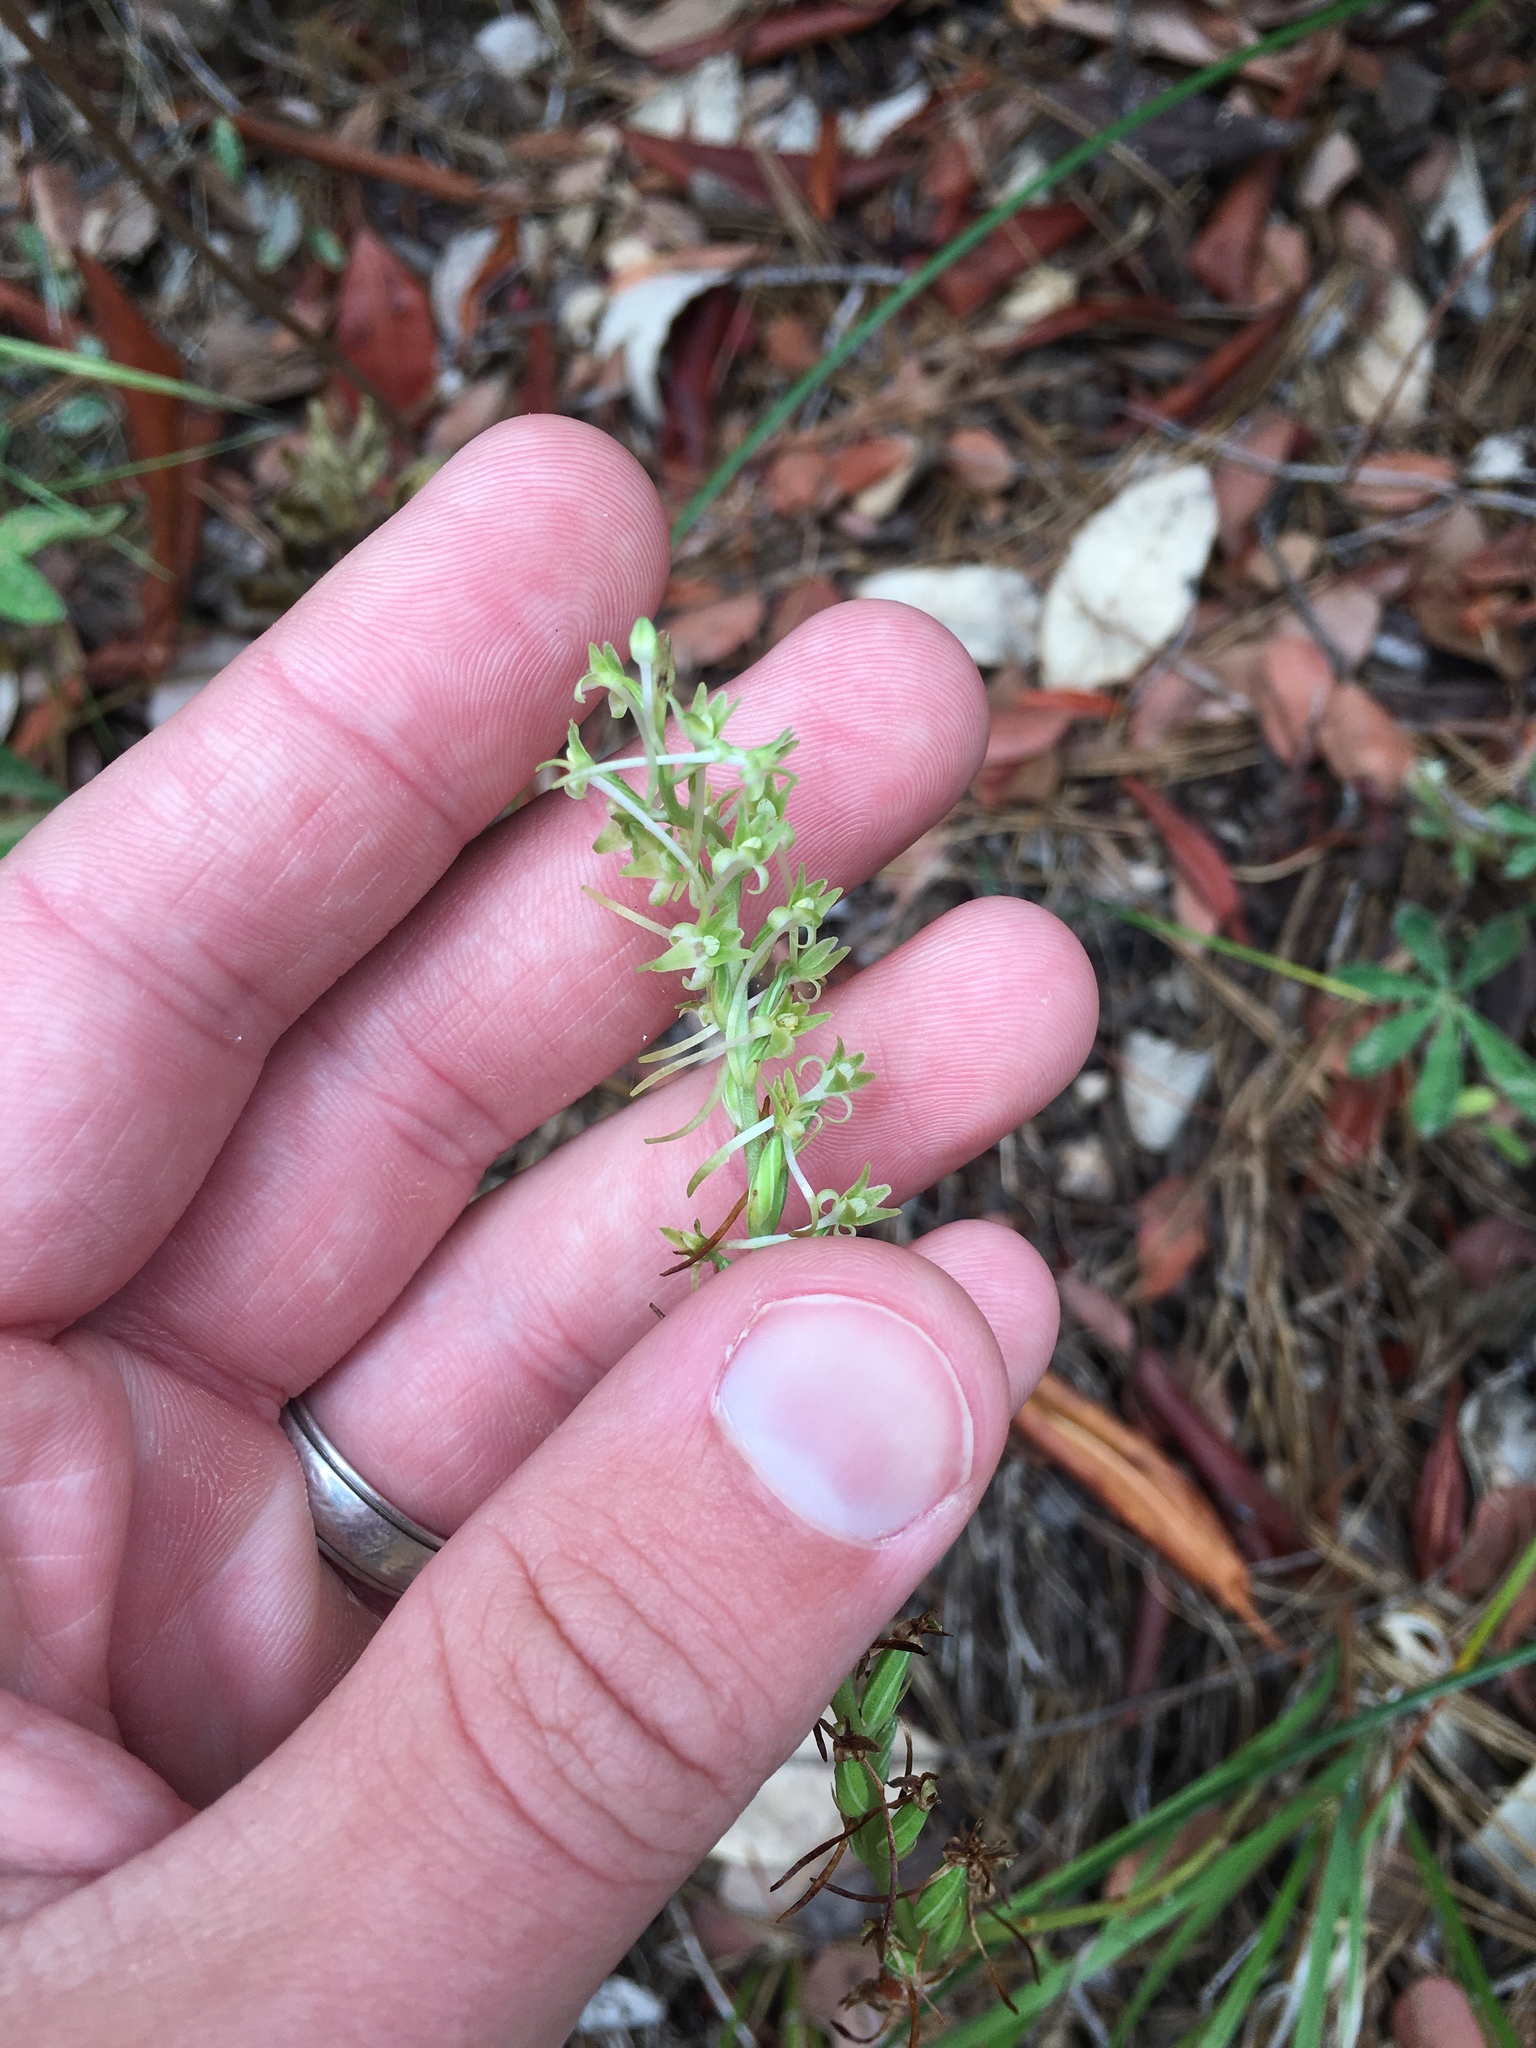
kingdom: Plantae
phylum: Tracheophyta
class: Liliopsida
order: Asparagales
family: Orchidaceae
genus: Platanthera
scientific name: Platanthera elongata
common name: Dense-flowered rein orchid
